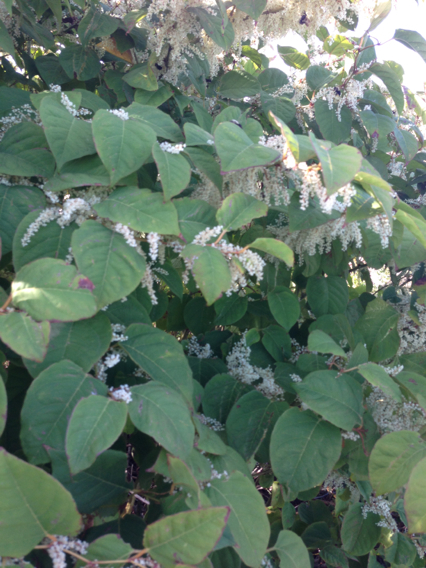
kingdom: Plantae
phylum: Tracheophyta
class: Magnoliopsida
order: Caryophyllales
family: Polygonaceae
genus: Reynoutria
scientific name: Reynoutria japonica
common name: Japanese knotweed
